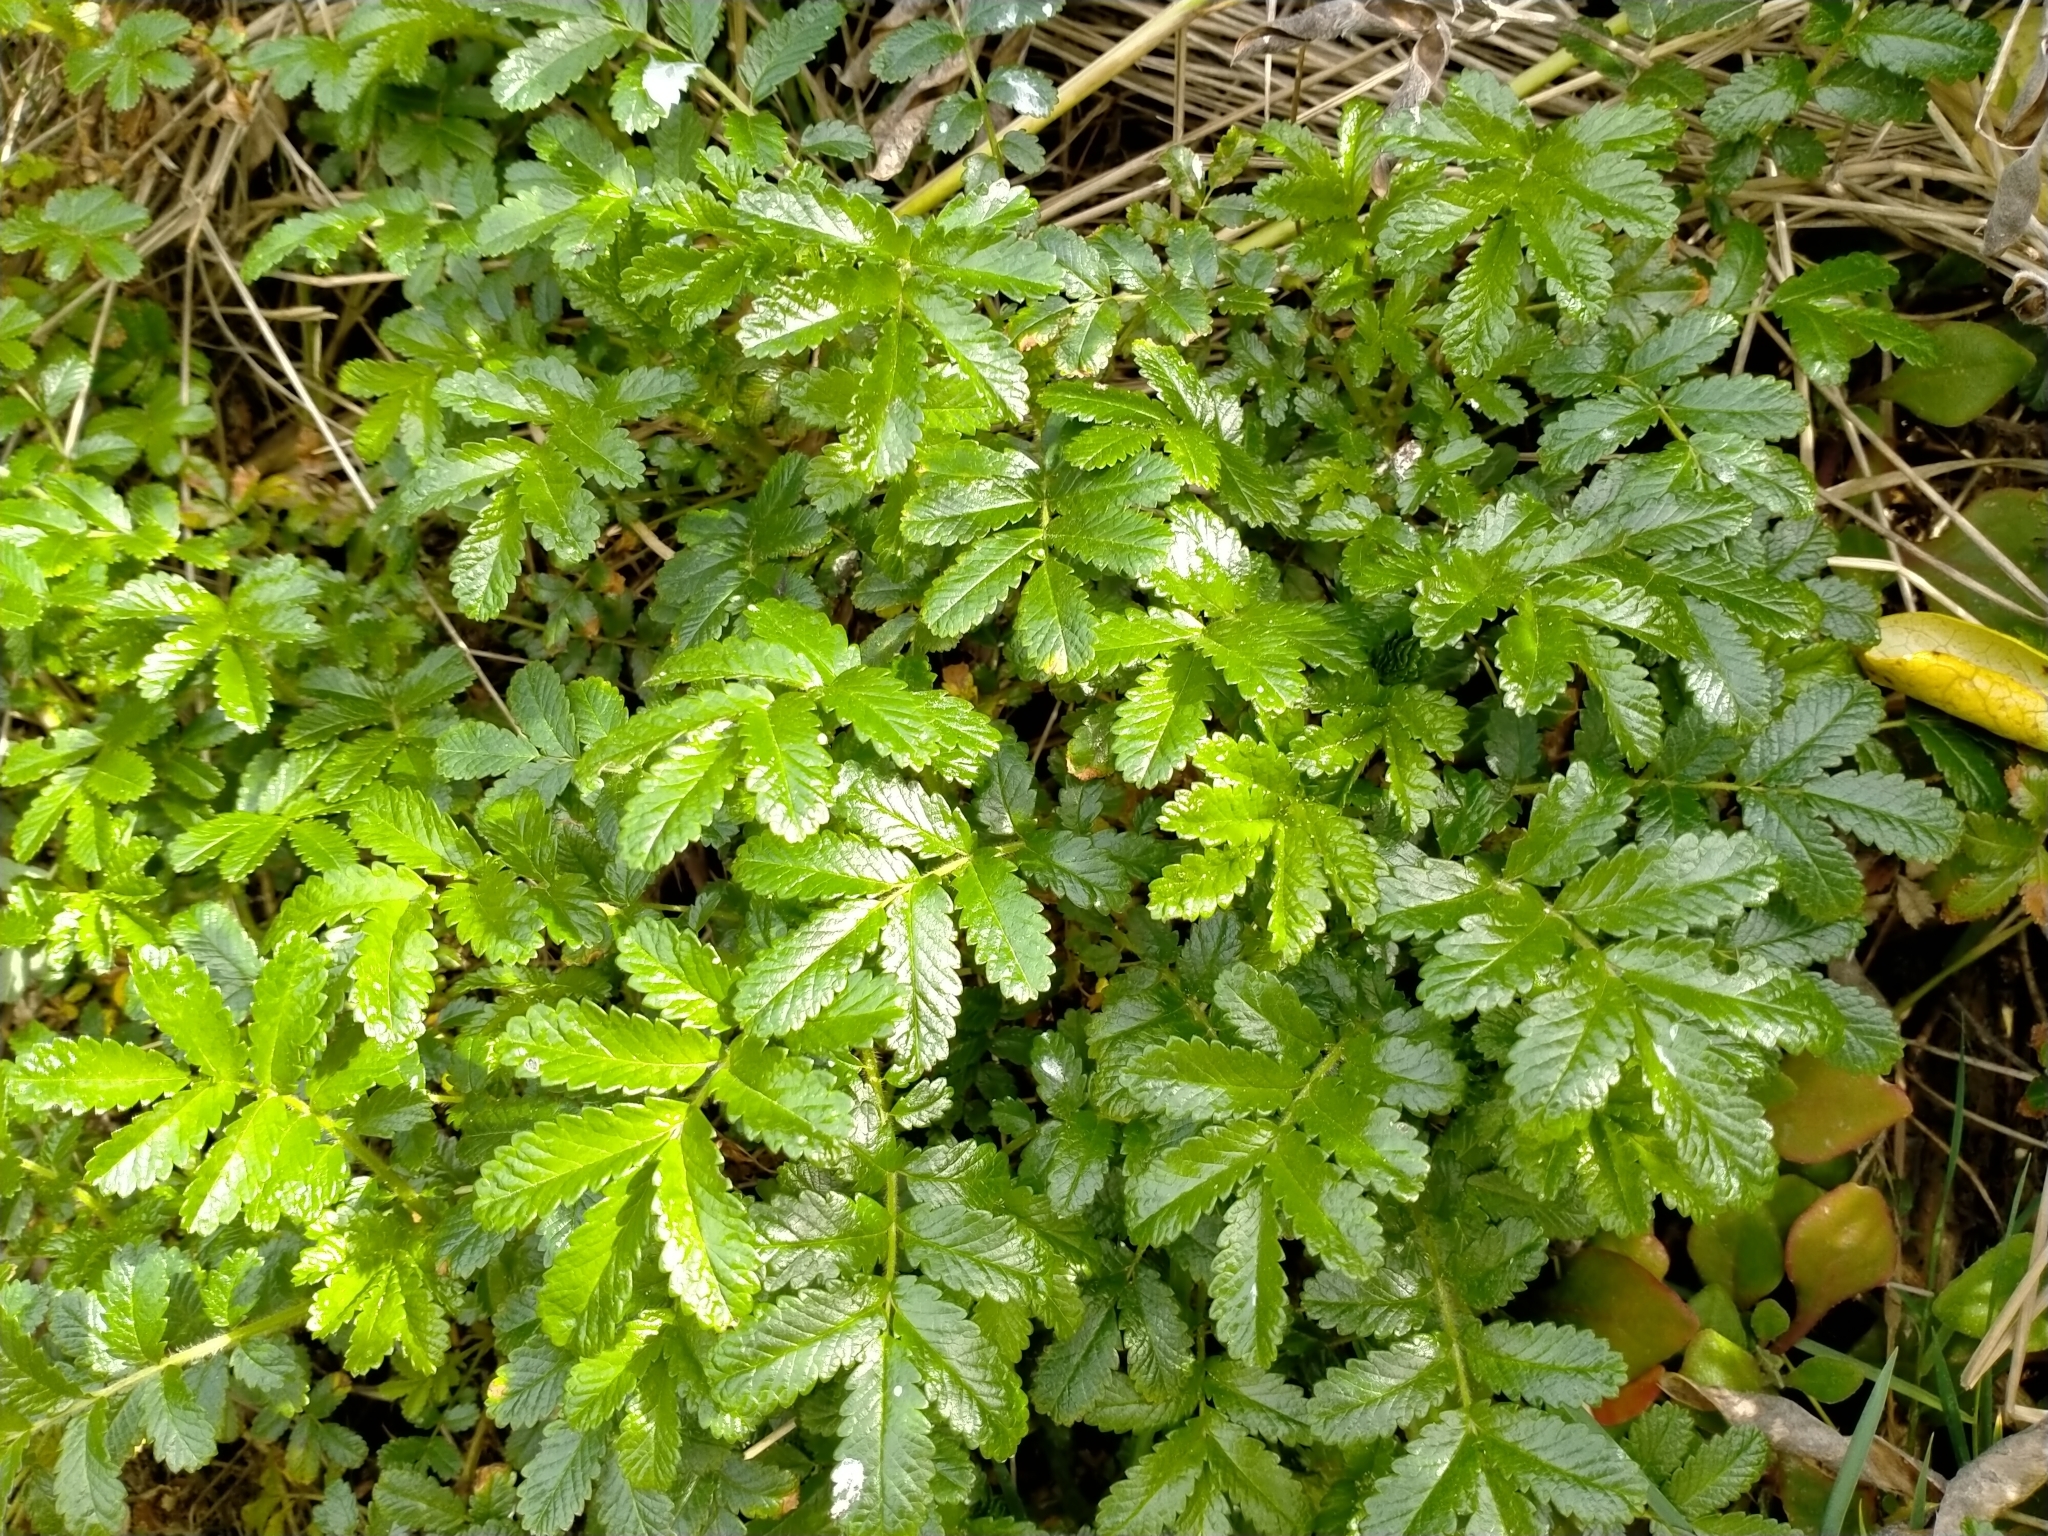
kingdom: Plantae
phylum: Tracheophyta
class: Magnoliopsida
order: Rosales
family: Rosaceae
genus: Acaena
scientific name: Acaena pallida
